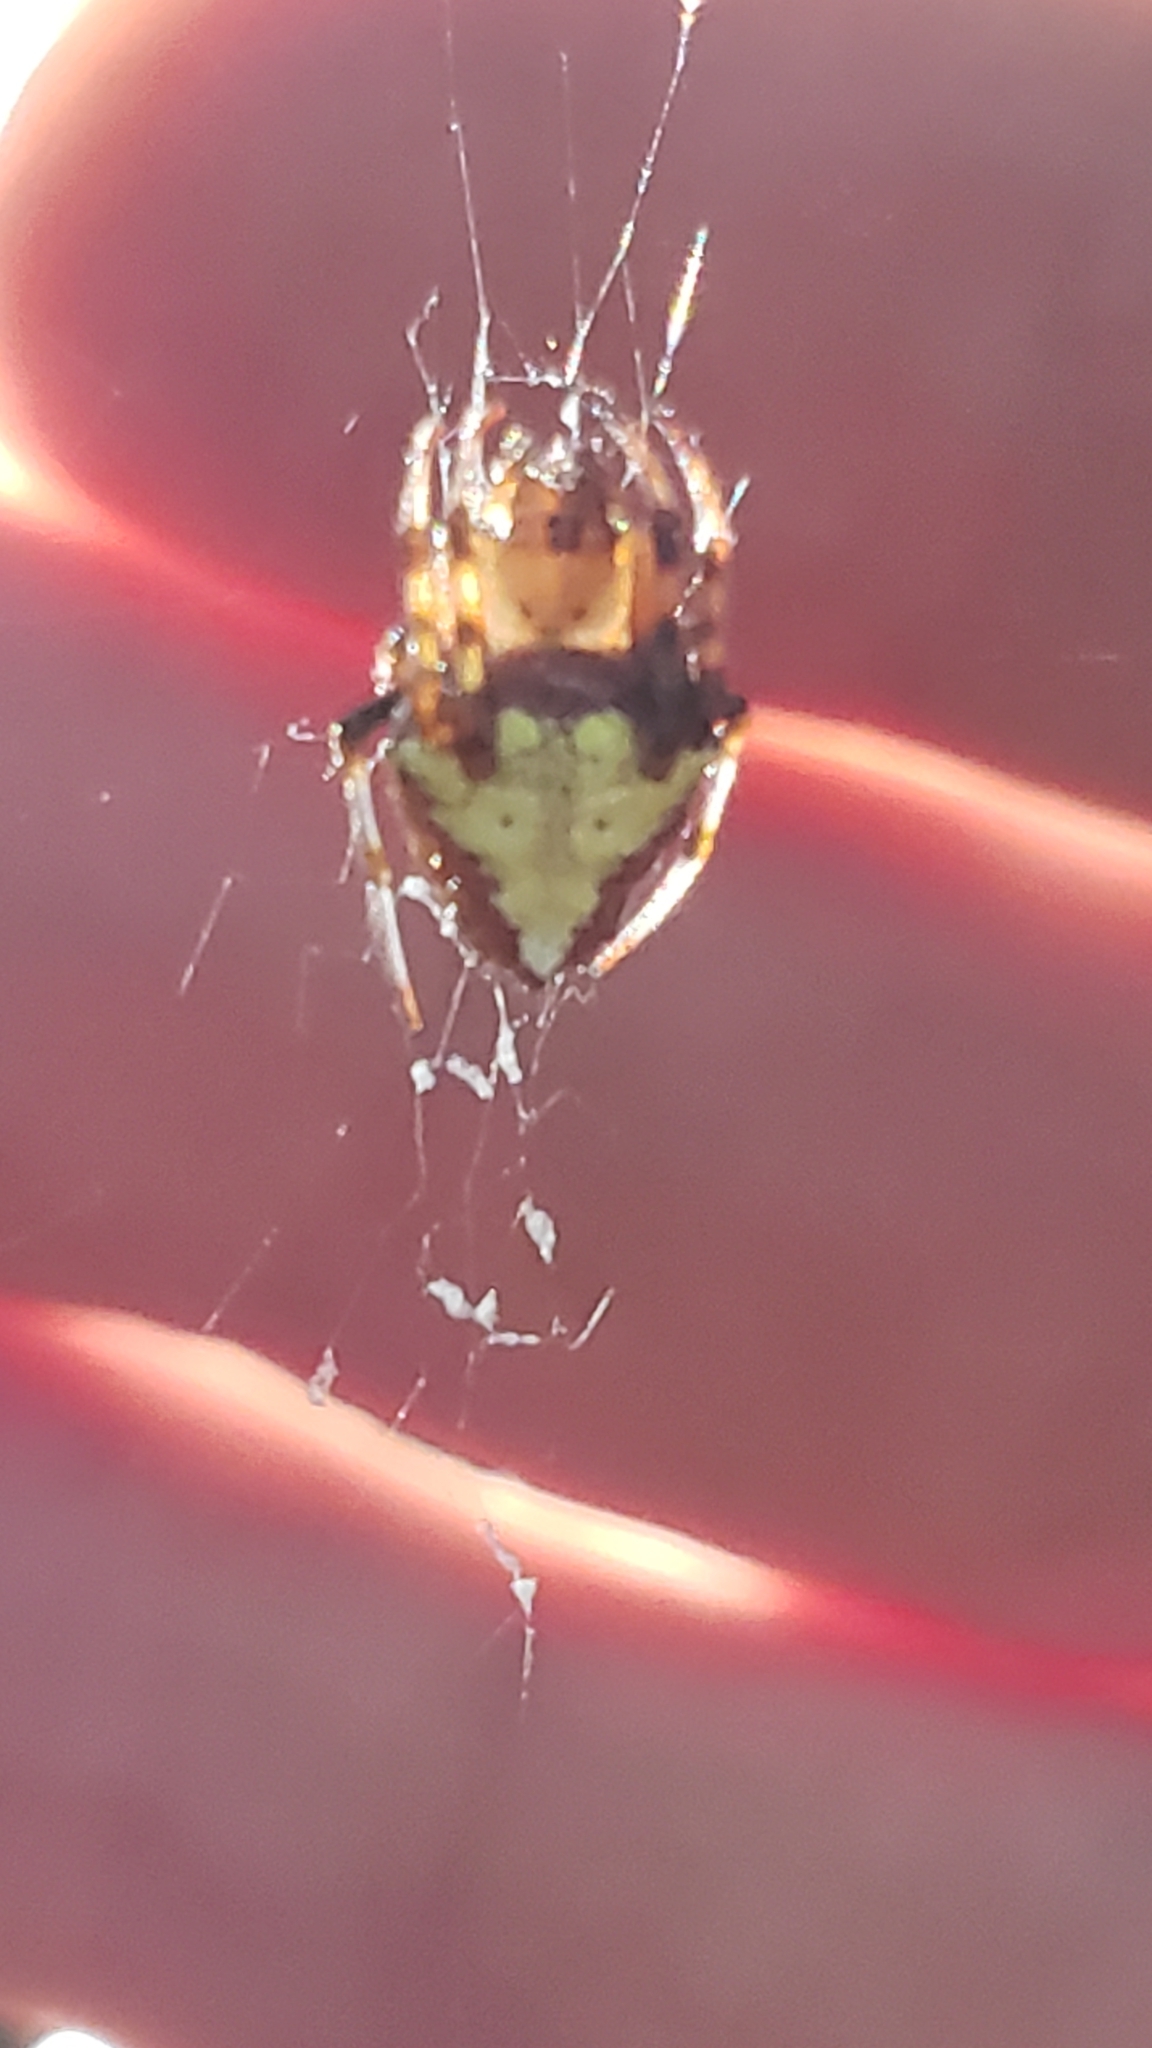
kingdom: Animalia
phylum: Arthropoda
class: Arachnida
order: Araneae
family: Araneidae
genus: Verrucosa
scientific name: Verrucosa arenata
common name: Orb weavers
